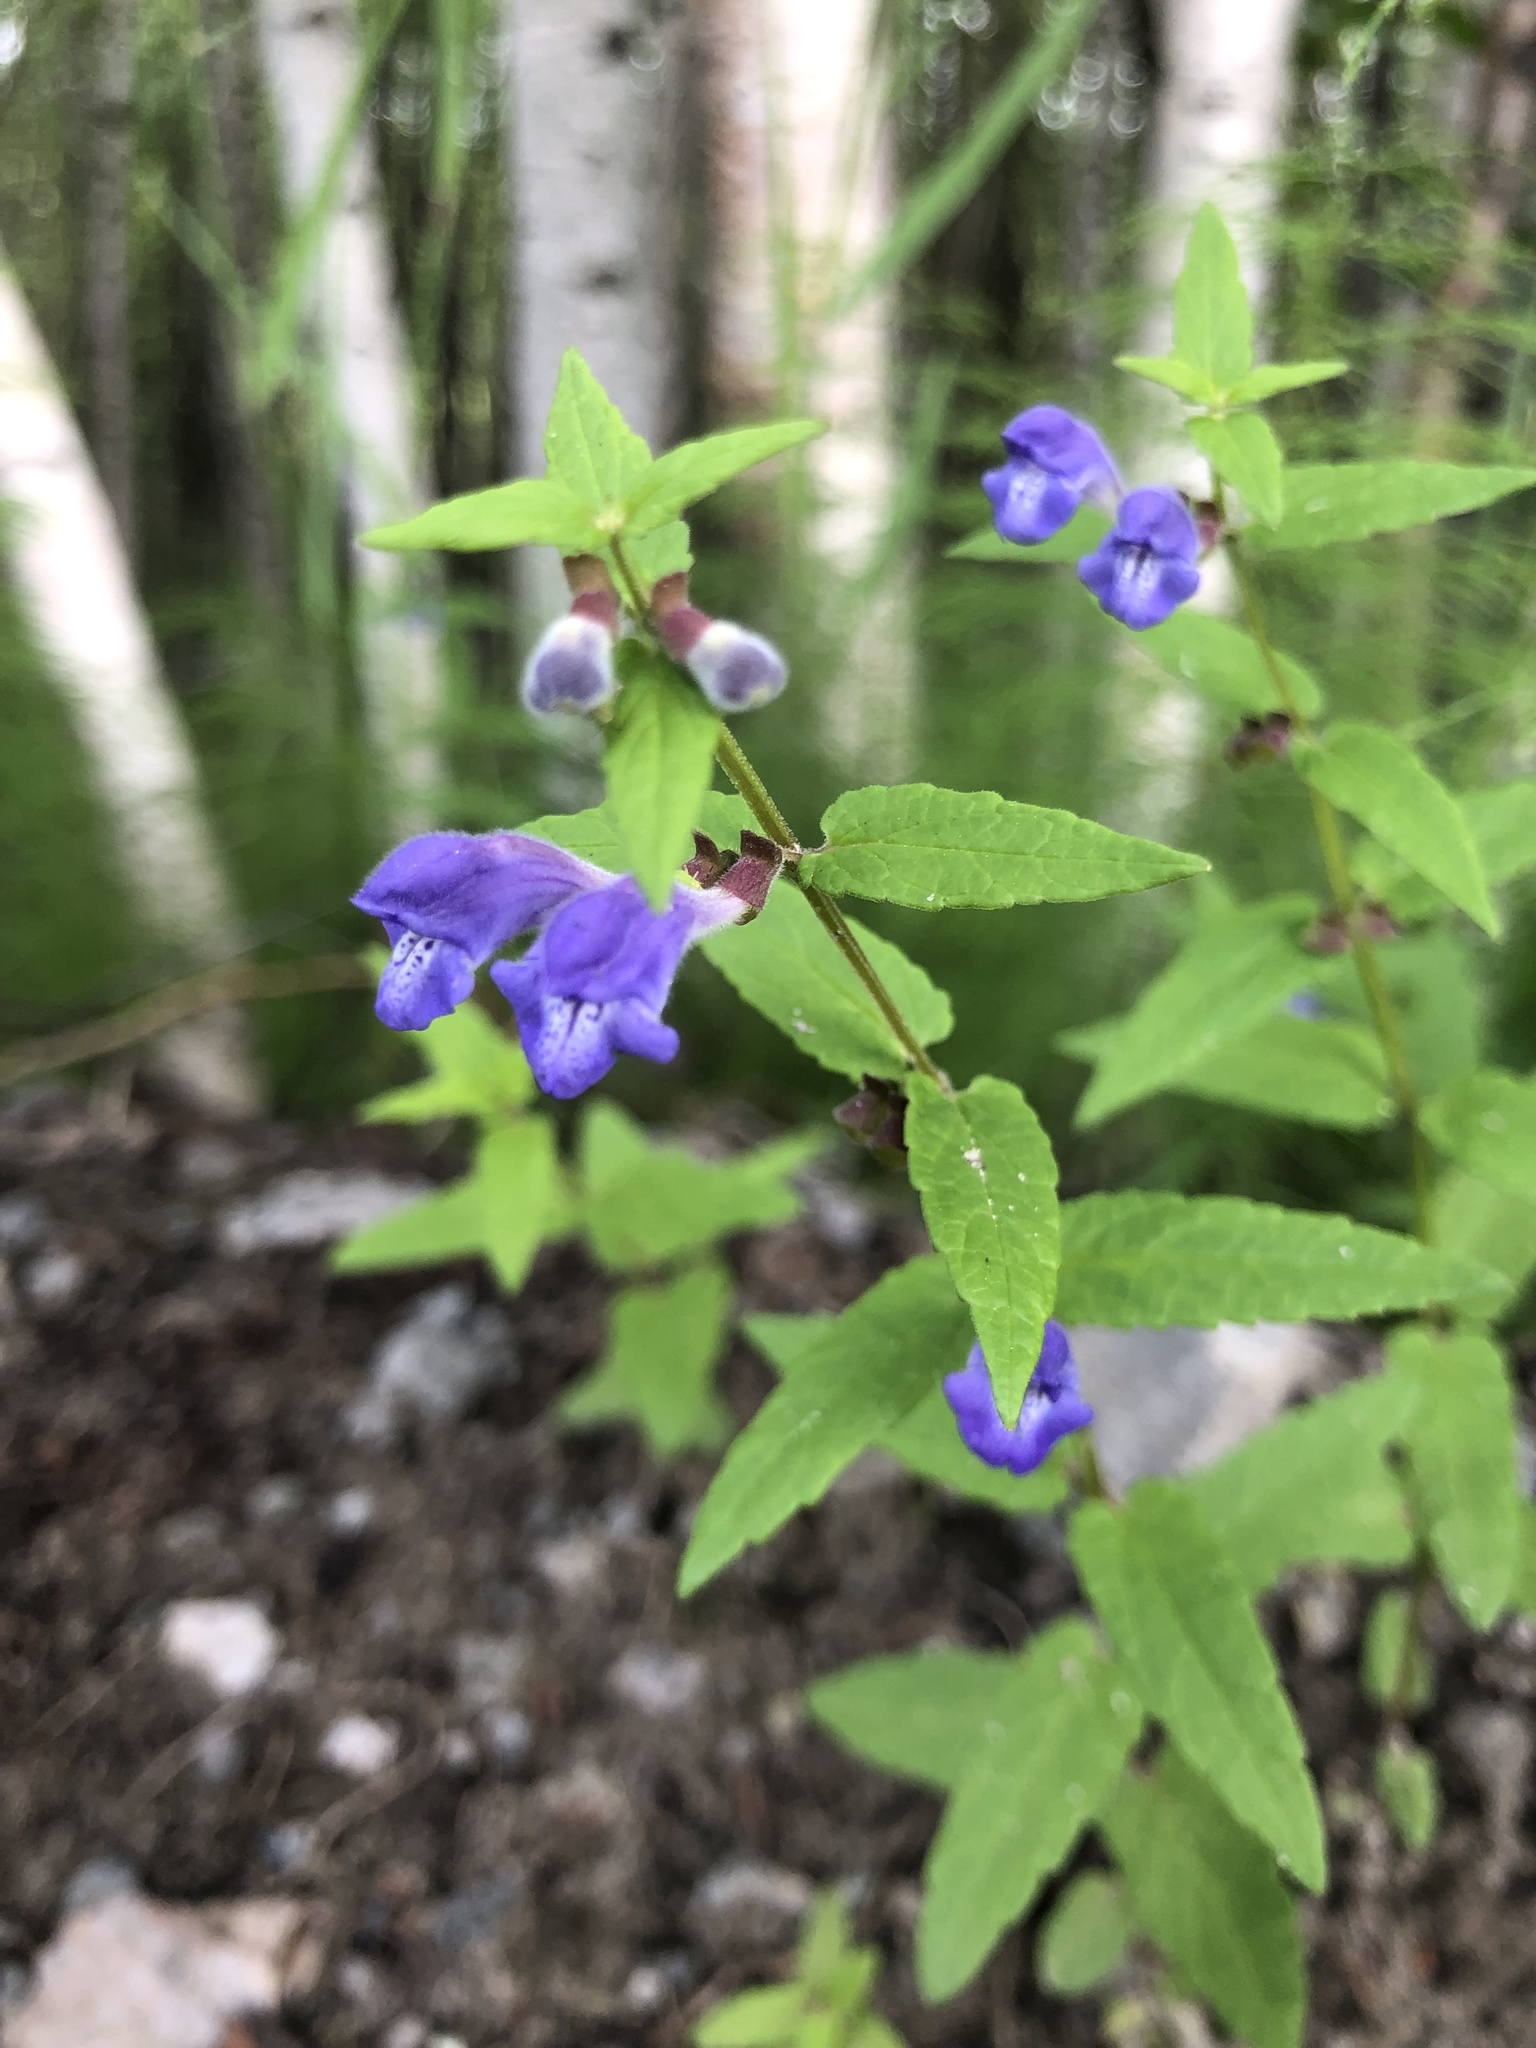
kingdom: Plantae
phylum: Tracheophyta
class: Magnoliopsida
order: Lamiales
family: Lamiaceae
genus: Scutellaria
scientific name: Scutellaria galericulata
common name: Skullcap
